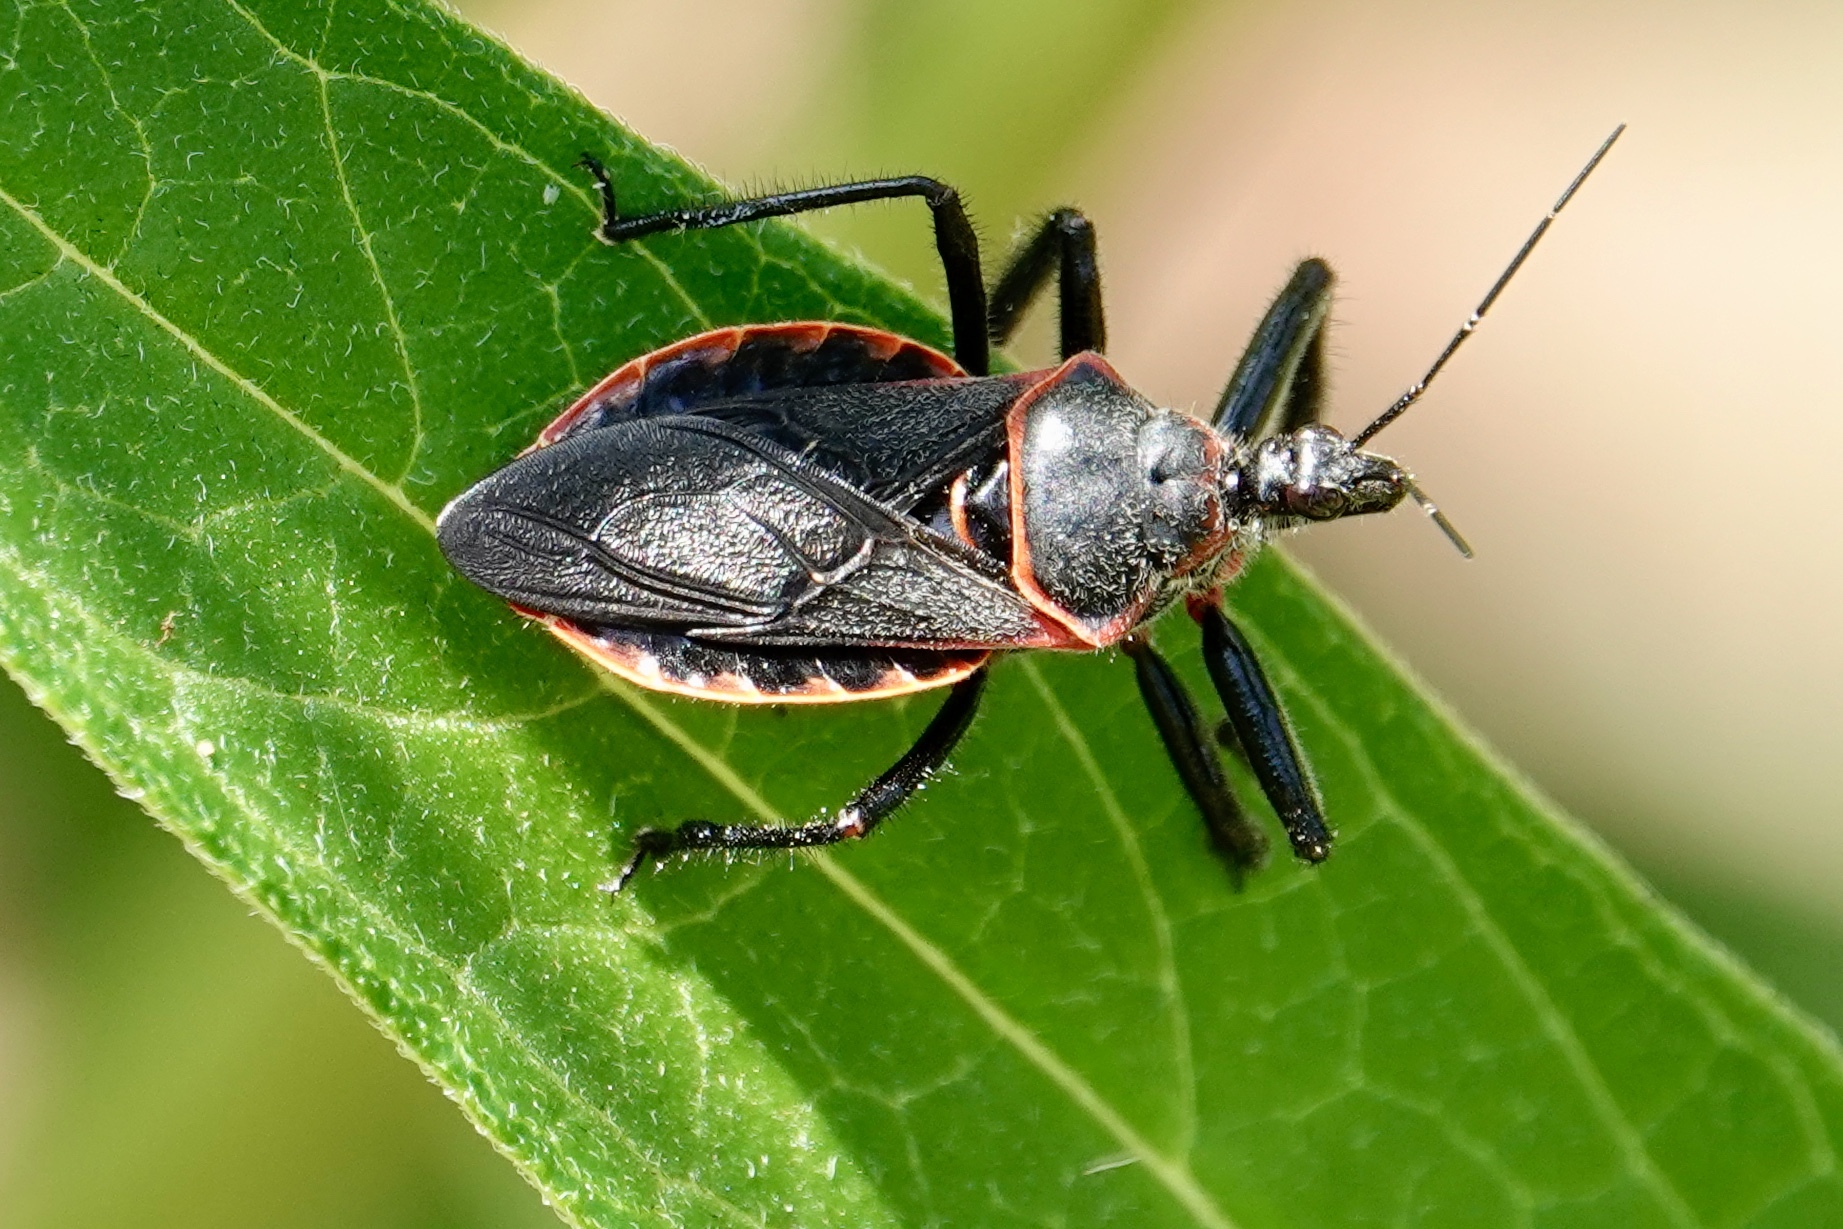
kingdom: Animalia
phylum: Arthropoda
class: Insecta
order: Hemiptera
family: Reduviidae
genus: Apiomerus
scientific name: Apiomerus crassipes
